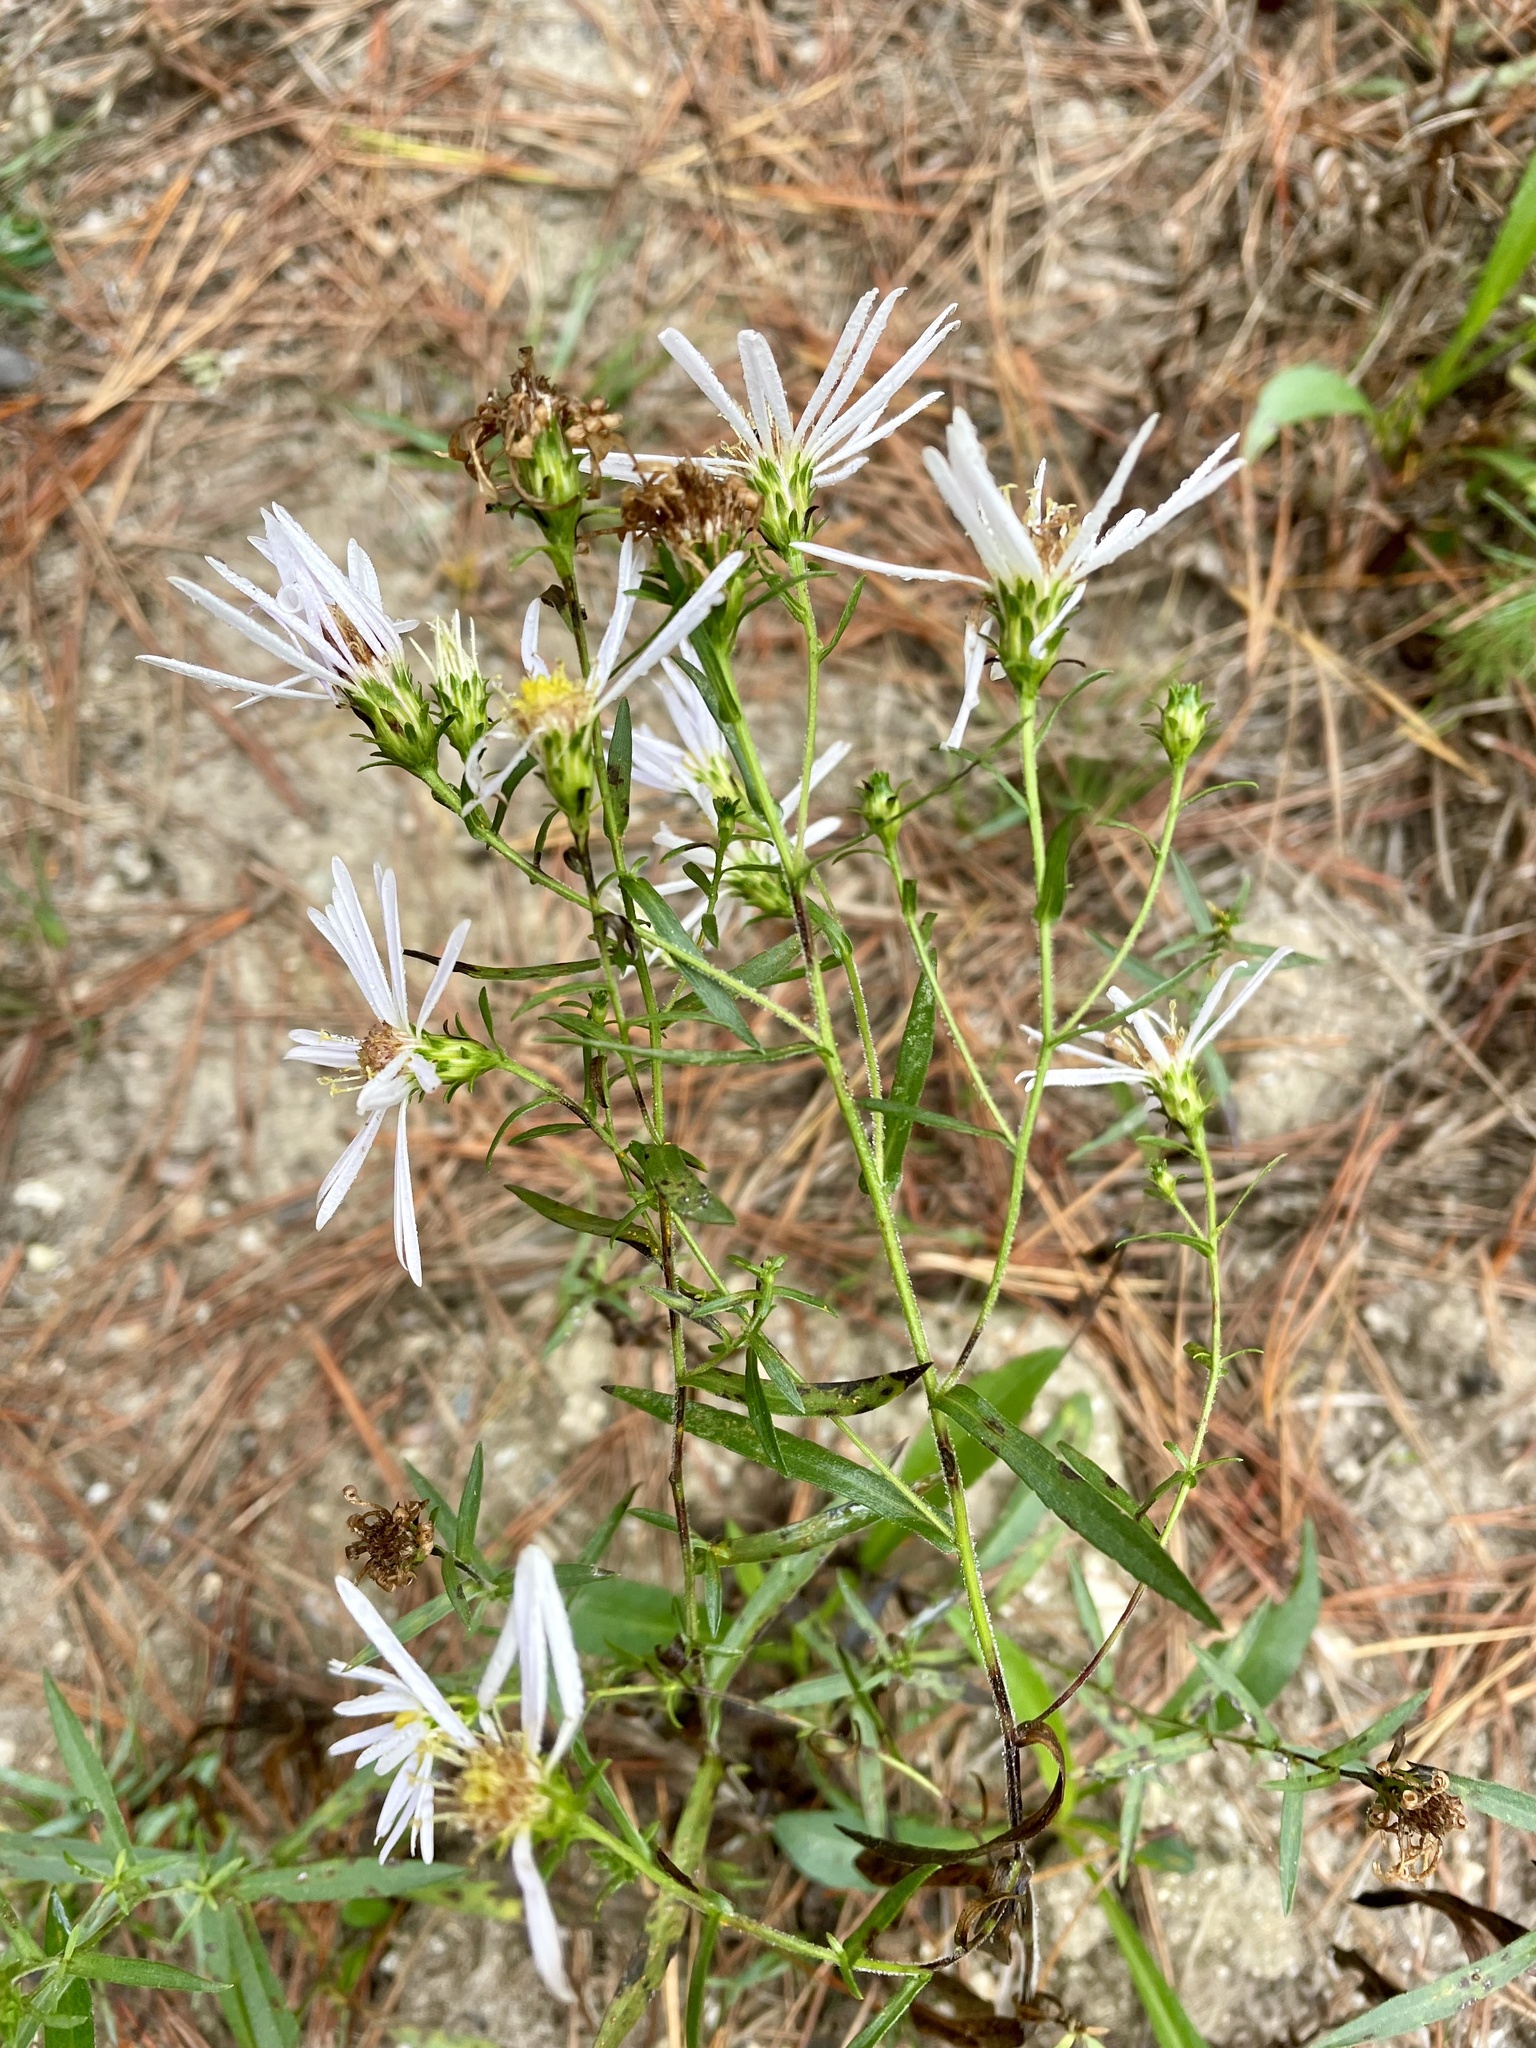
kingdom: Plantae
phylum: Tracheophyta
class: Magnoliopsida
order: Asterales
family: Asteraceae
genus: Symphyotrichum
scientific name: Symphyotrichum chilense
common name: Pacific aster
